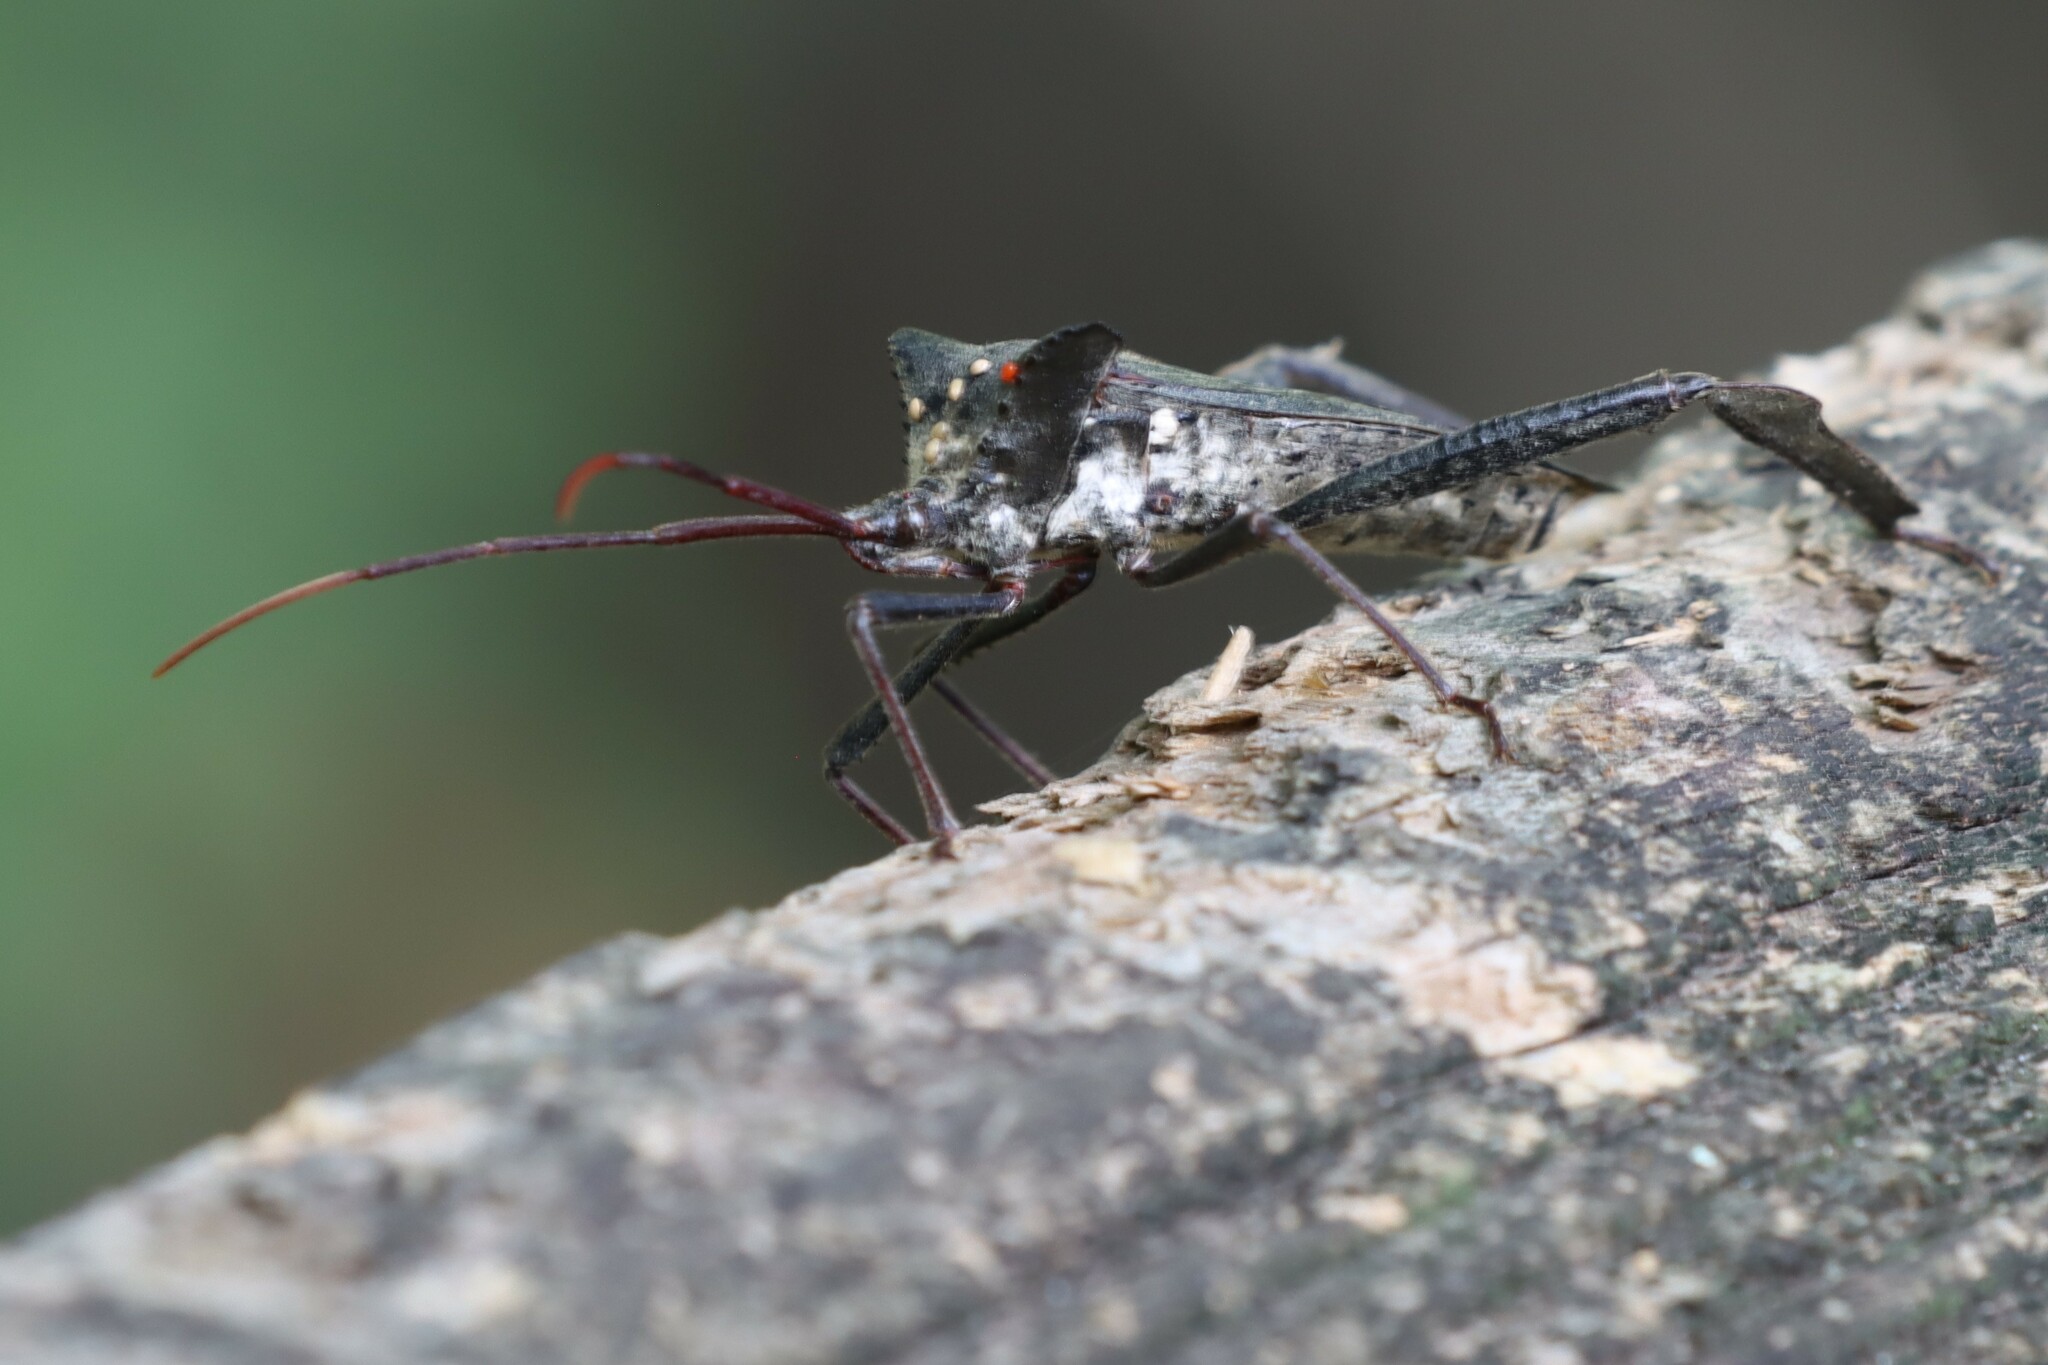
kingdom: Animalia
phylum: Arthropoda
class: Insecta
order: Hemiptera
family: Coreidae
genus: Acanthocephala
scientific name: Acanthocephala declivis
